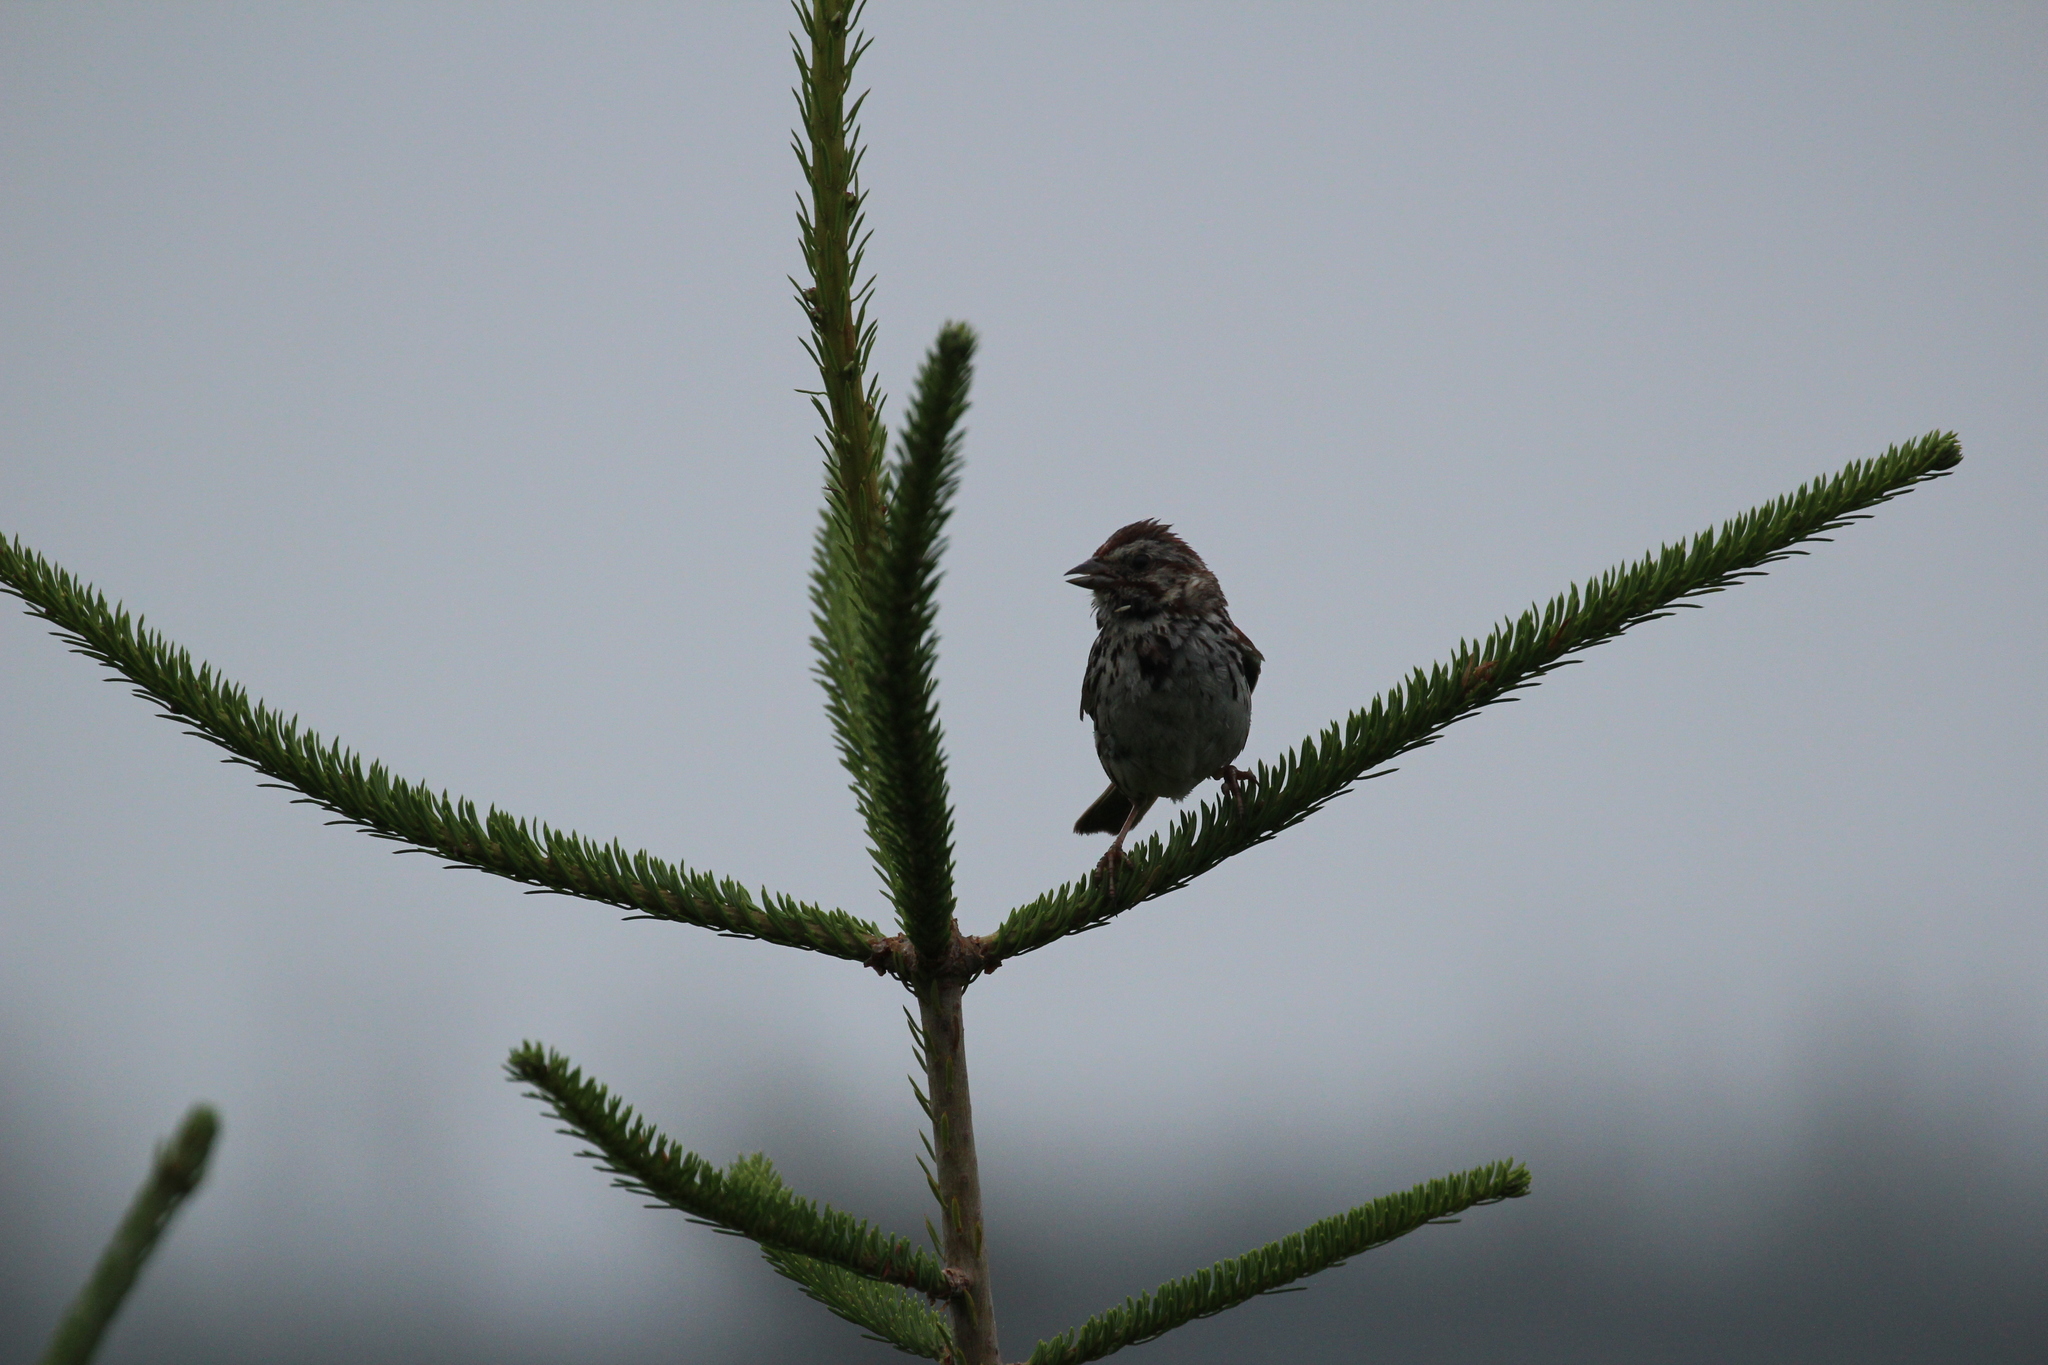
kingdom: Animalia
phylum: Chordata
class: Aves
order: Passeriformes
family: Passerellidae
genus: Melospiza
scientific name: Melospiza melodia
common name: Song sparrow
